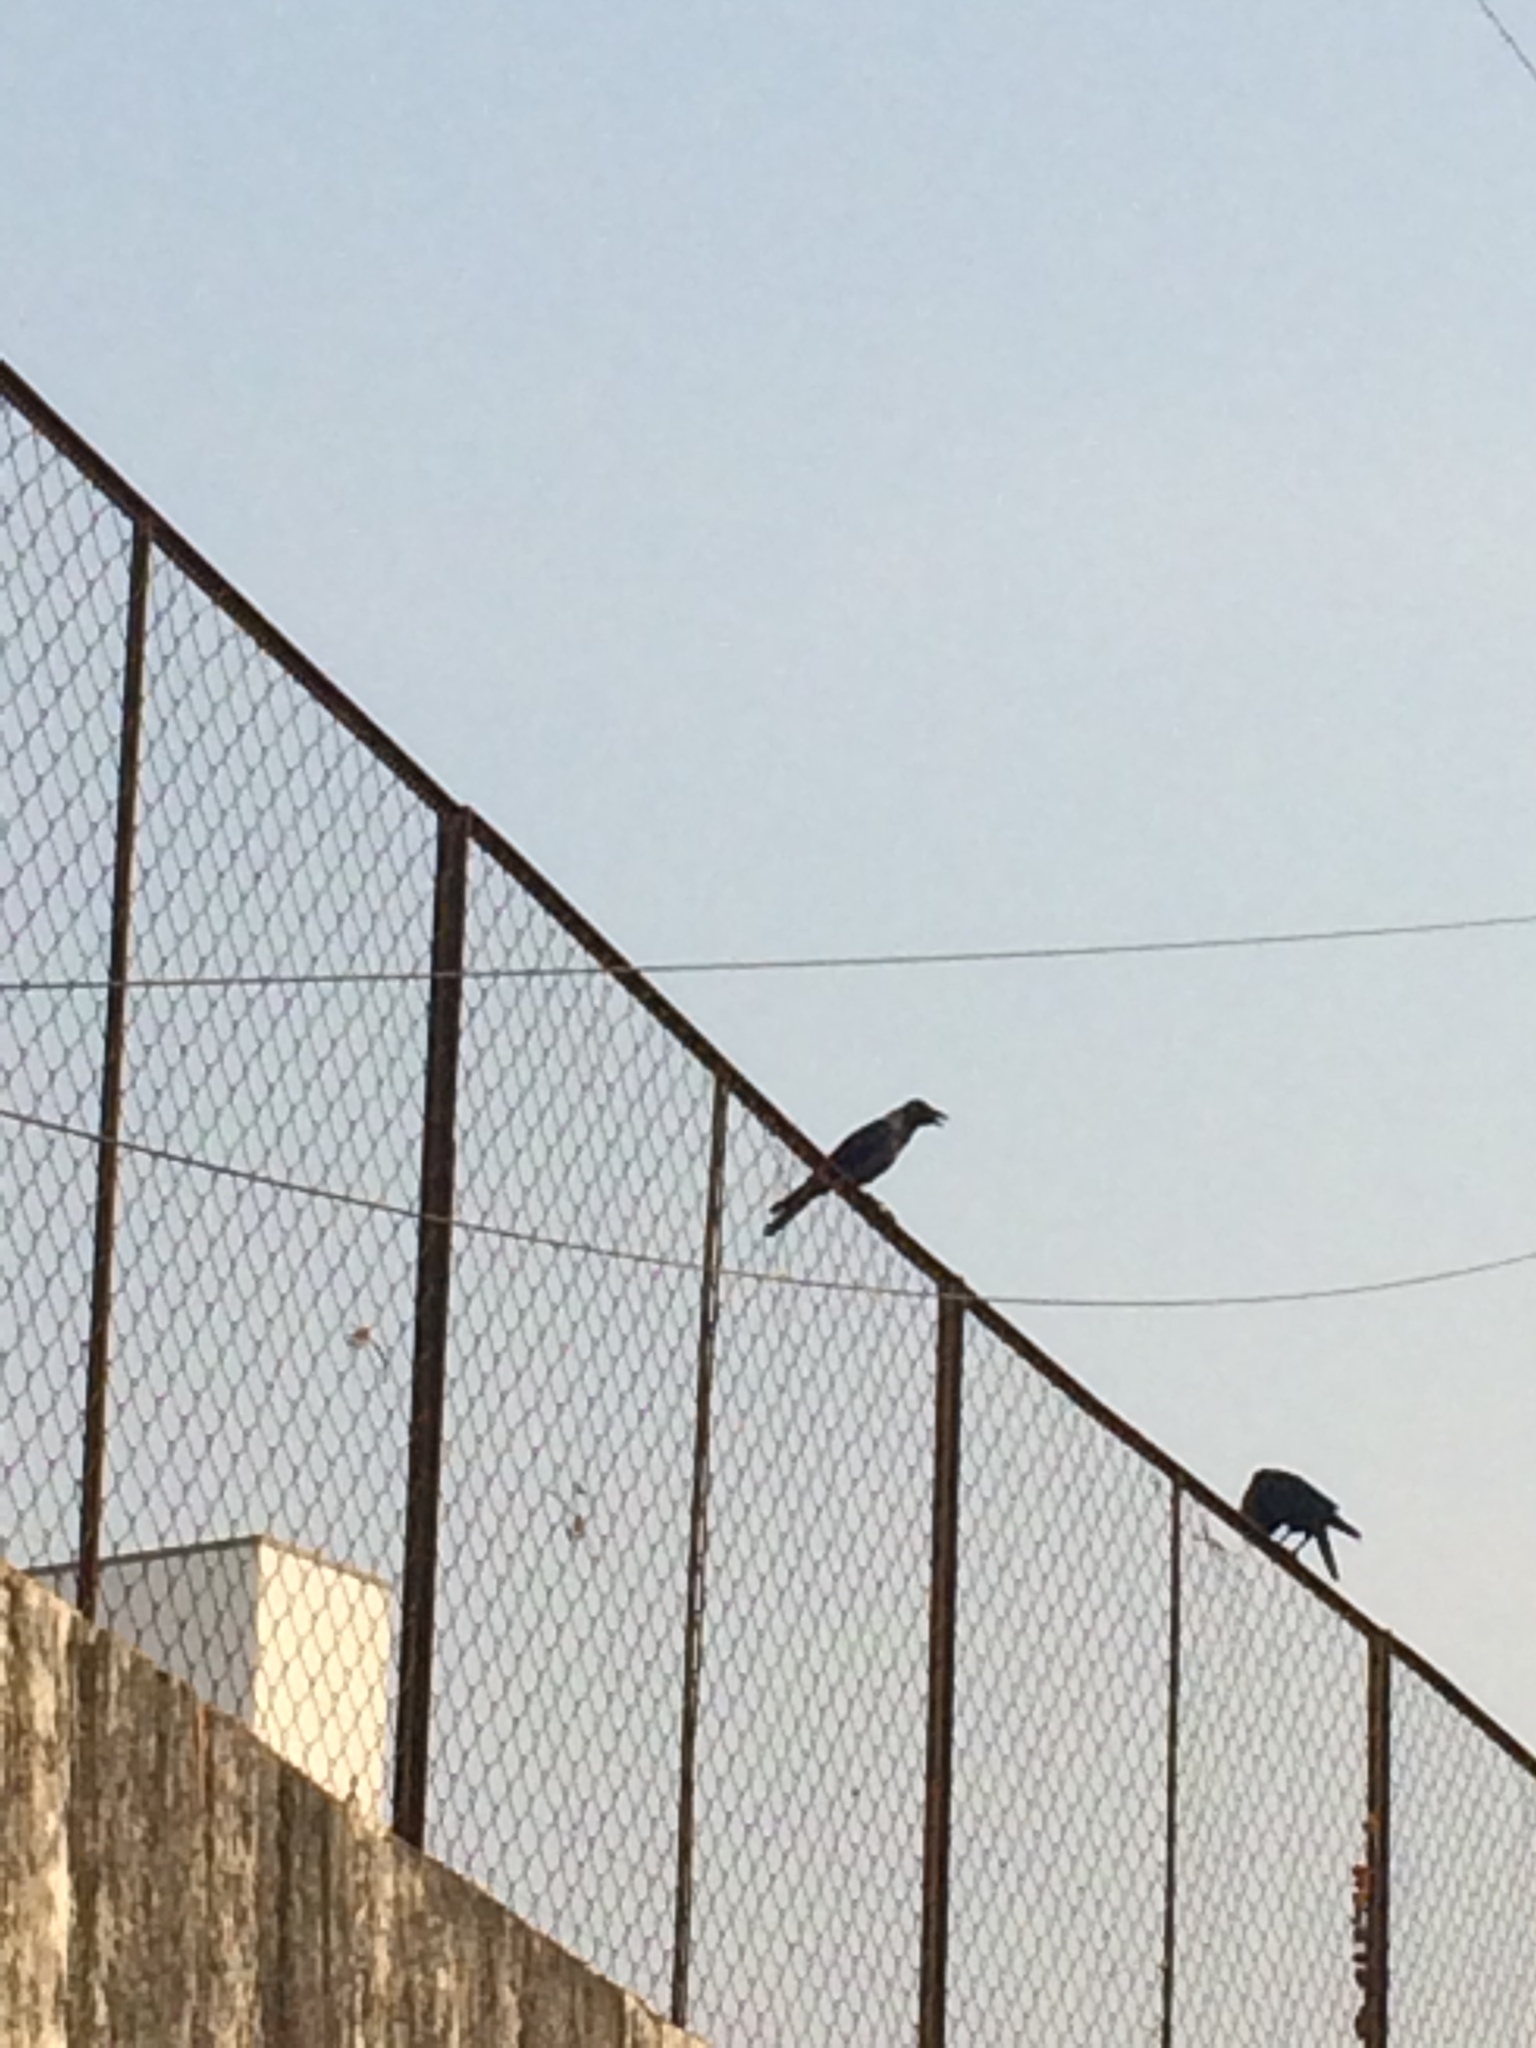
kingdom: Animalia
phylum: Chordata
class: Aves
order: Passeriformes
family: Corvidae
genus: Corvus
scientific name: Corvus splendens
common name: House crow
